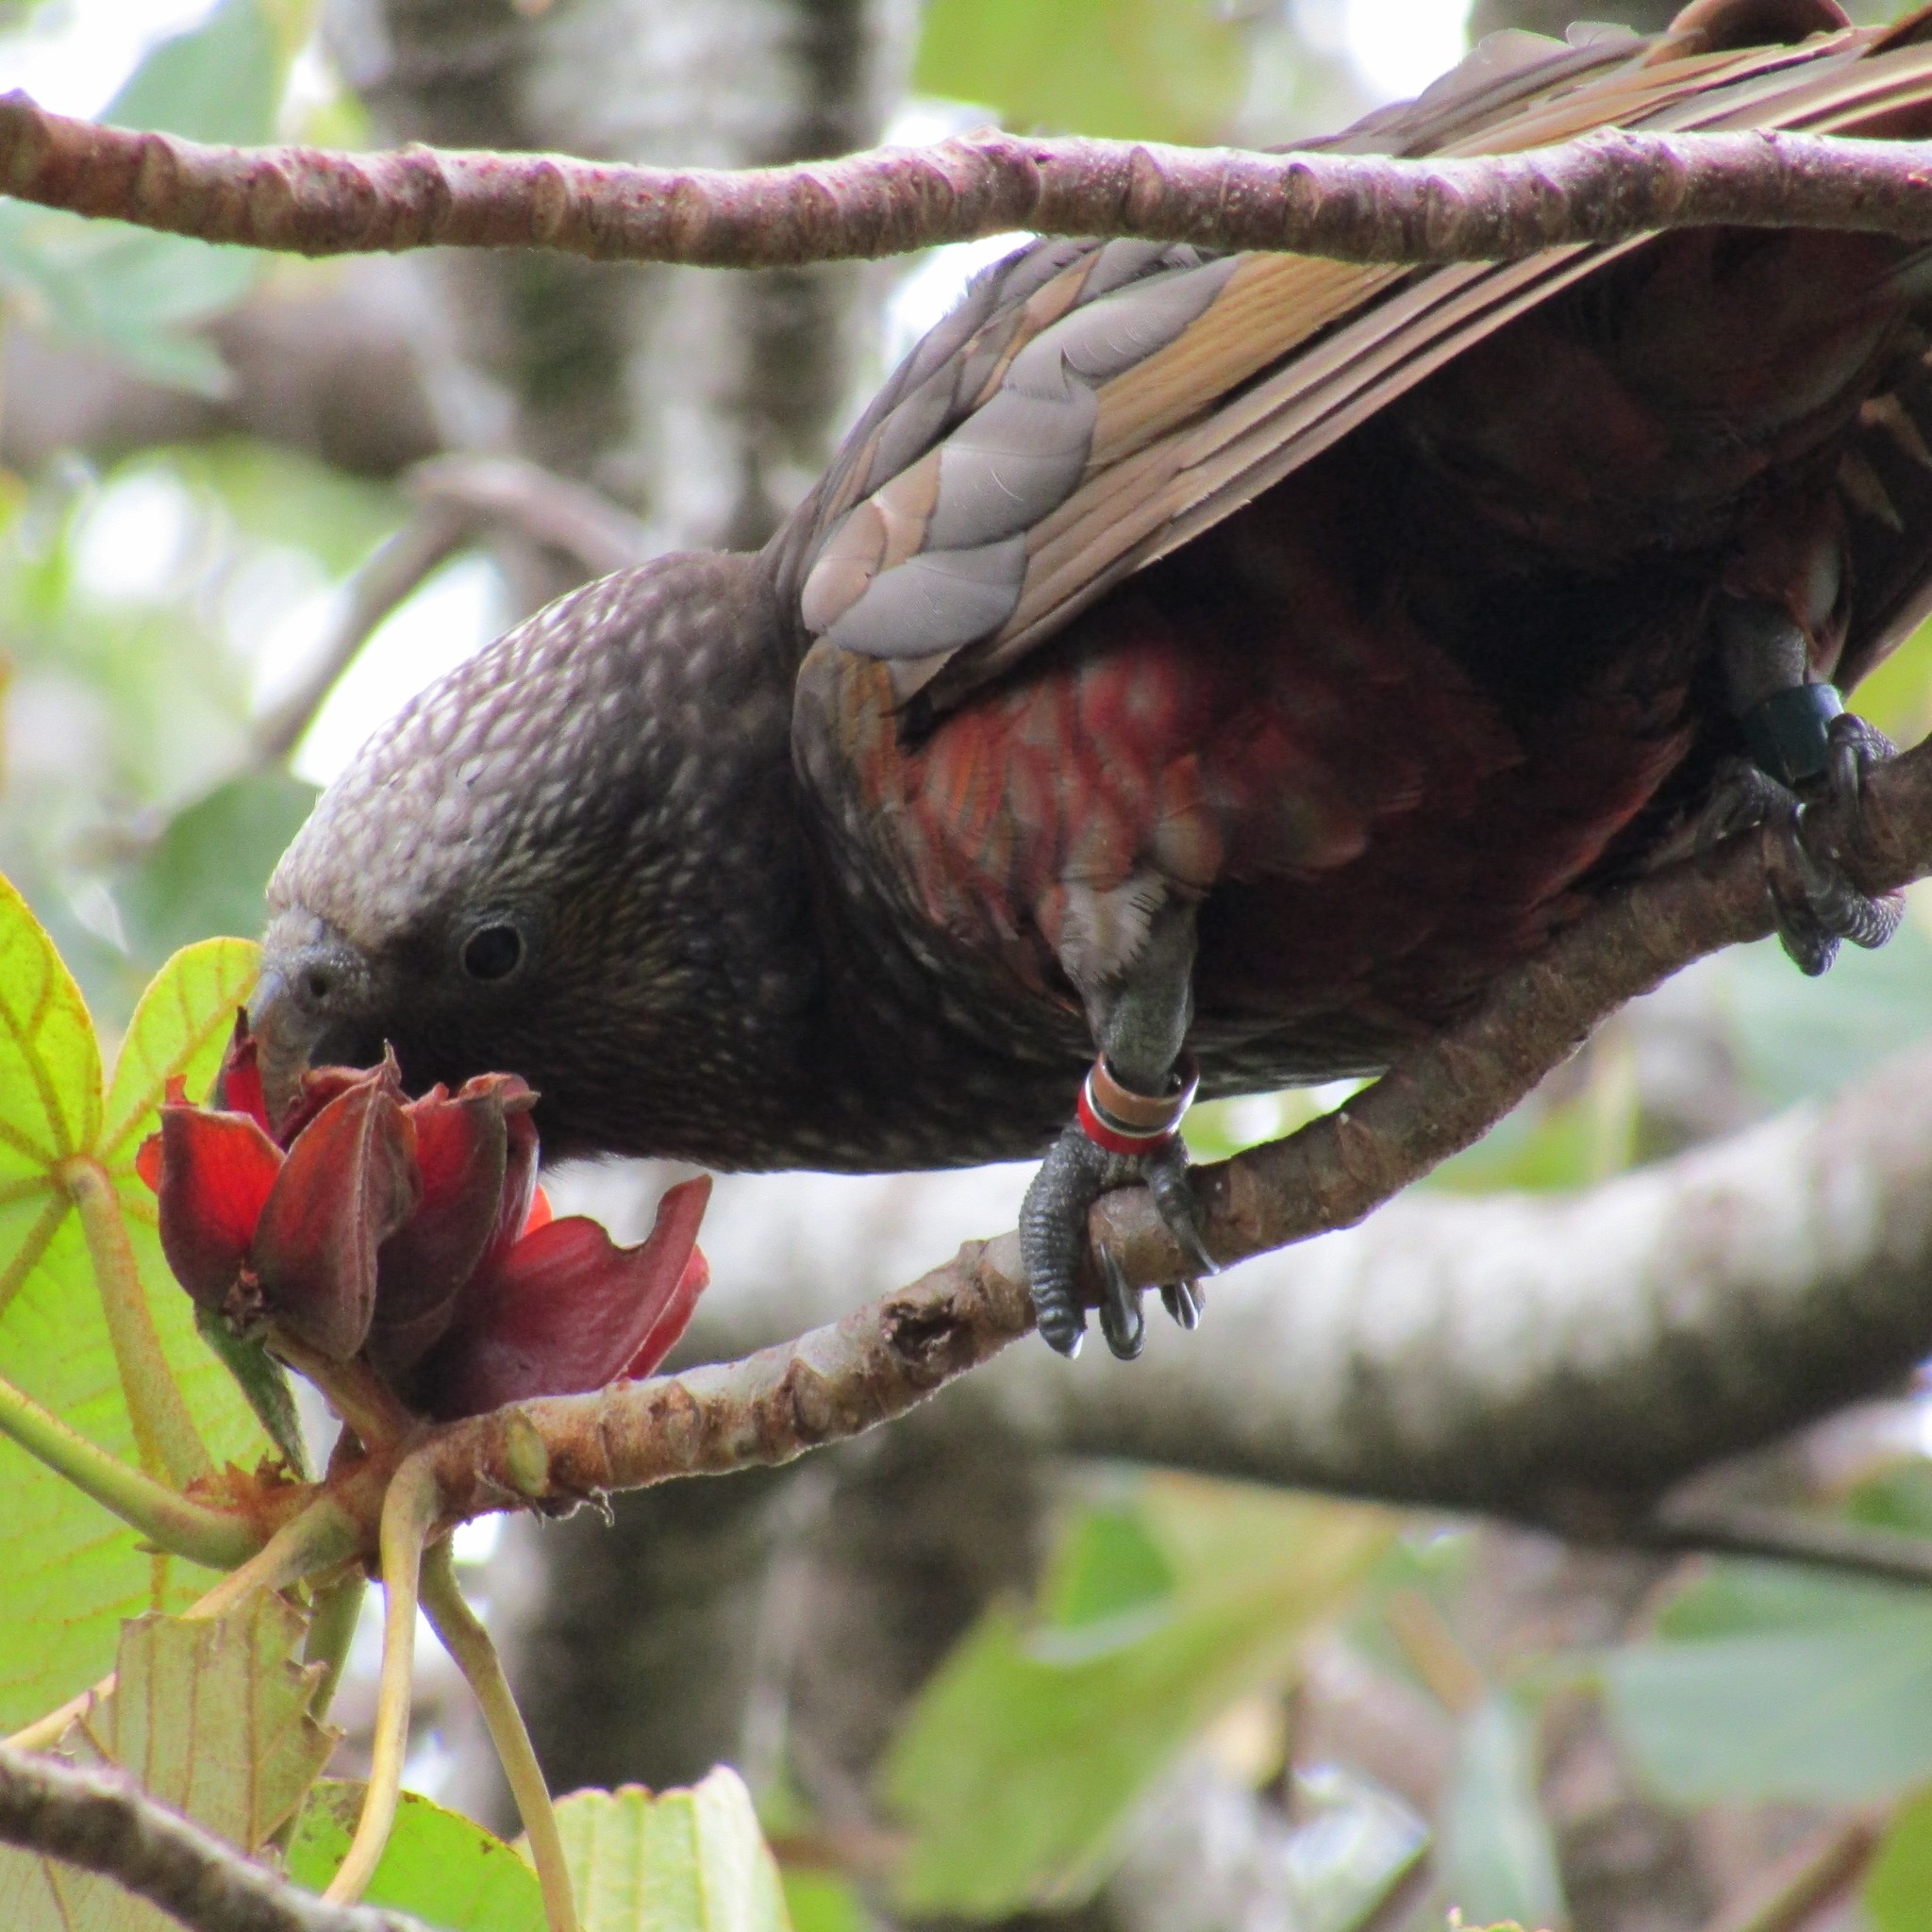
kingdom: Animalia
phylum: Chordata
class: Aves
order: Psittaciformes
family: Psittacidae
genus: Nestor
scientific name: Nestor meridionalis
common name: New zealand kaka
